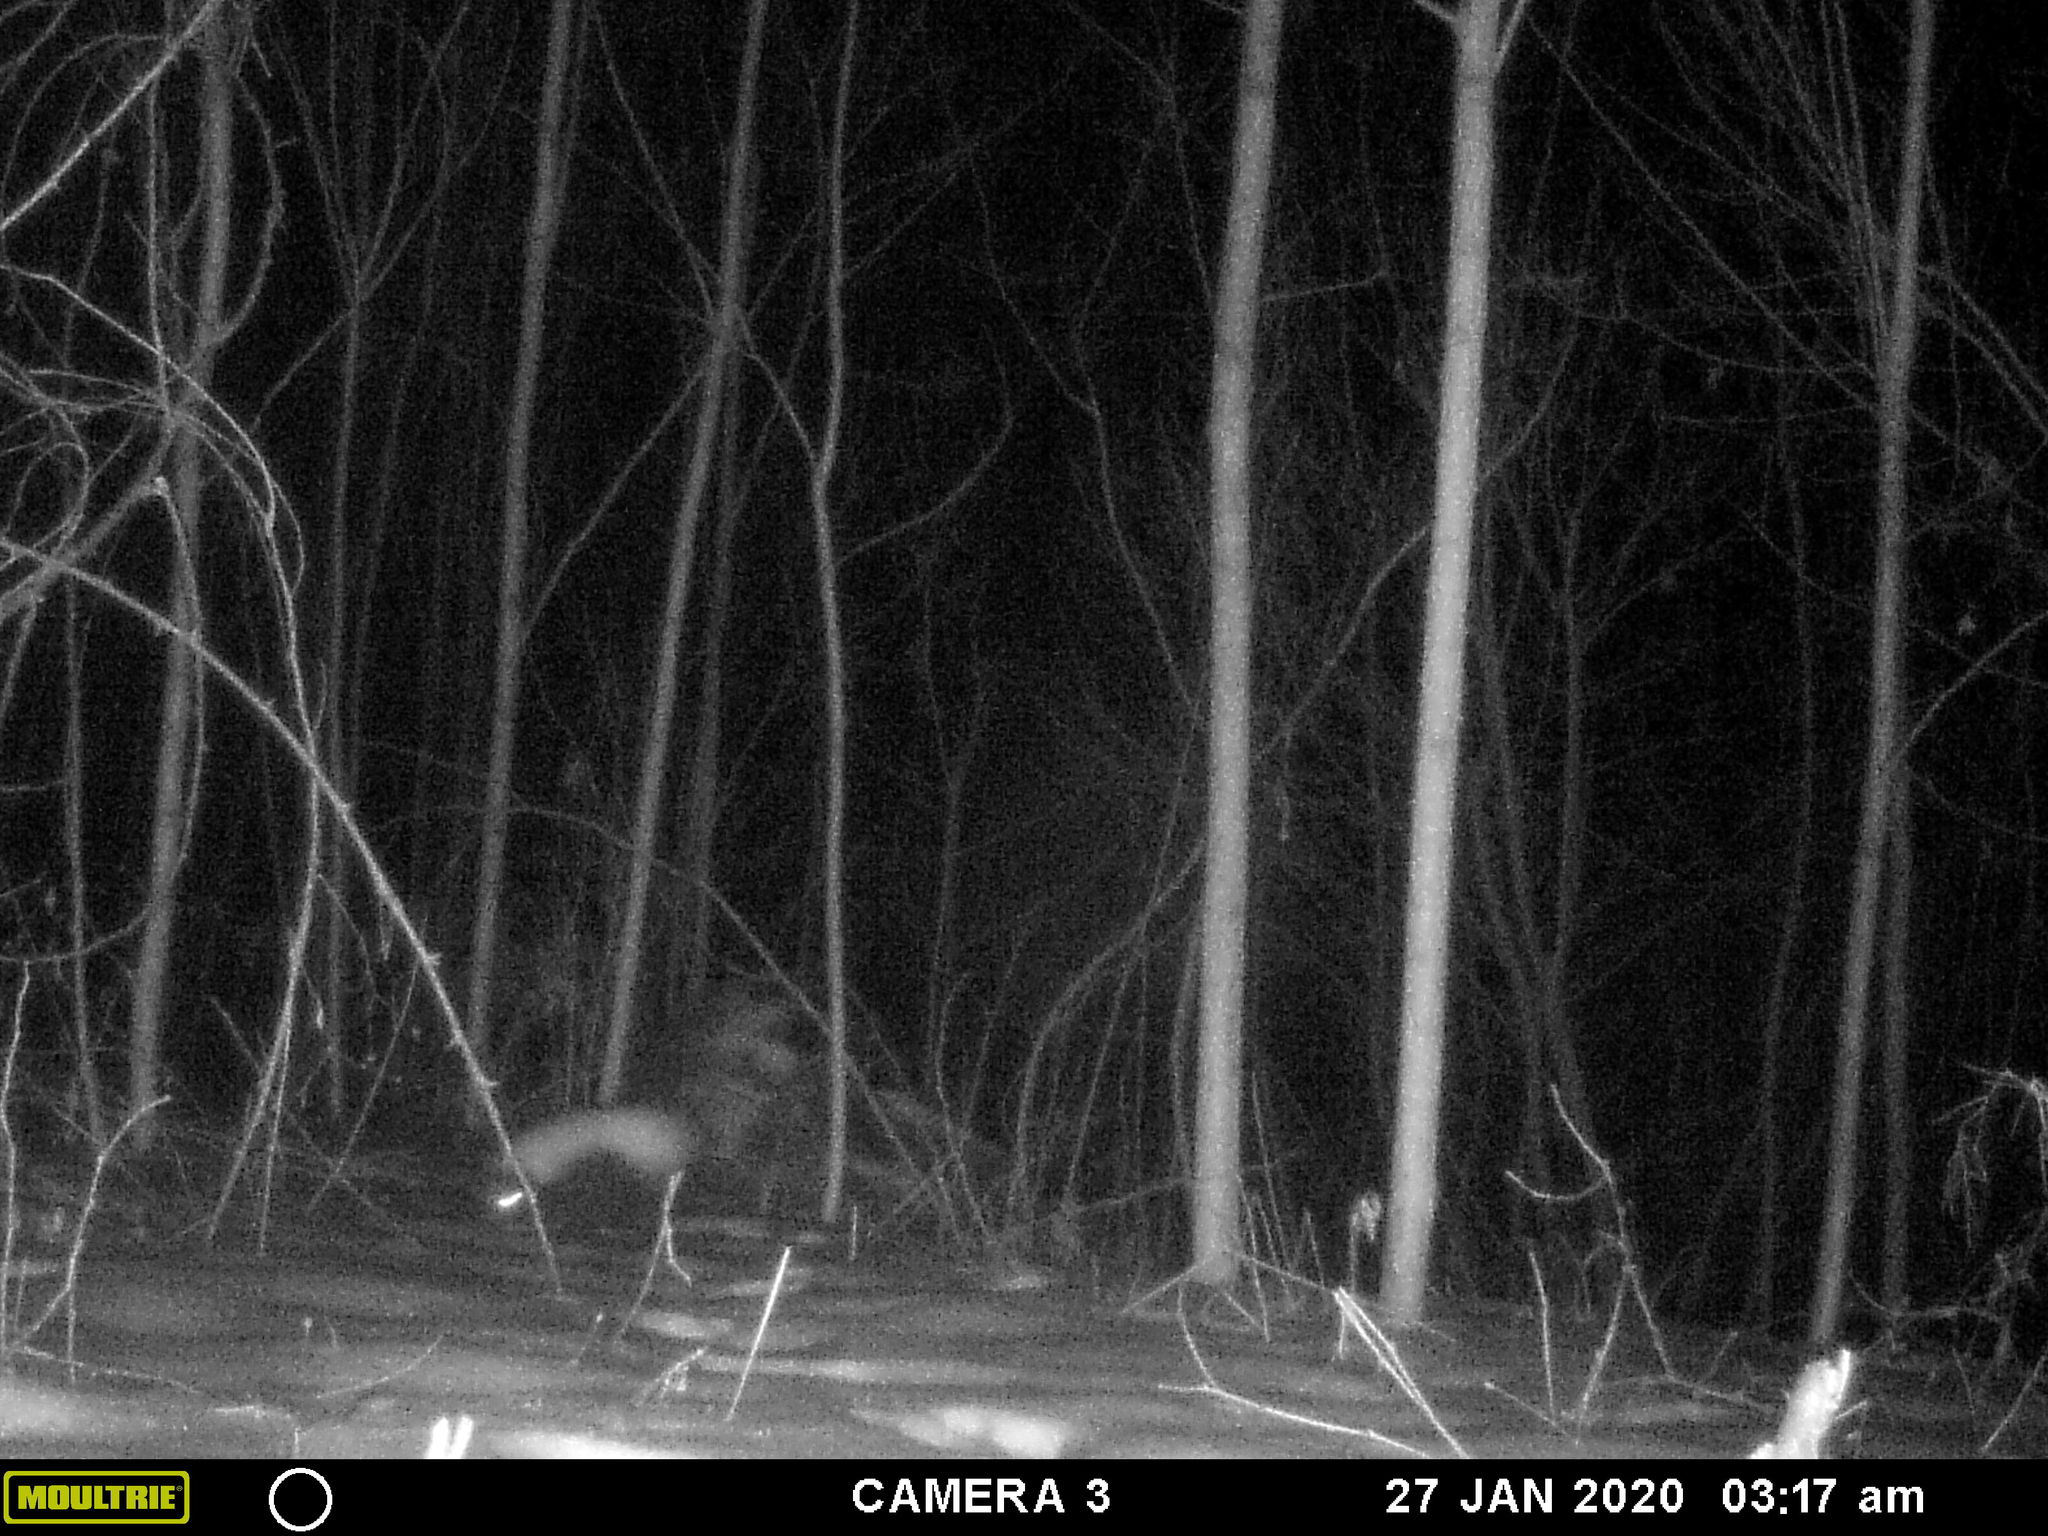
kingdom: Animalia
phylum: Chordata
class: Mammalia
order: Carnivora
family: Mephitidae
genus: Mephitis
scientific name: Mephitis mephitis
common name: Striped skunk
